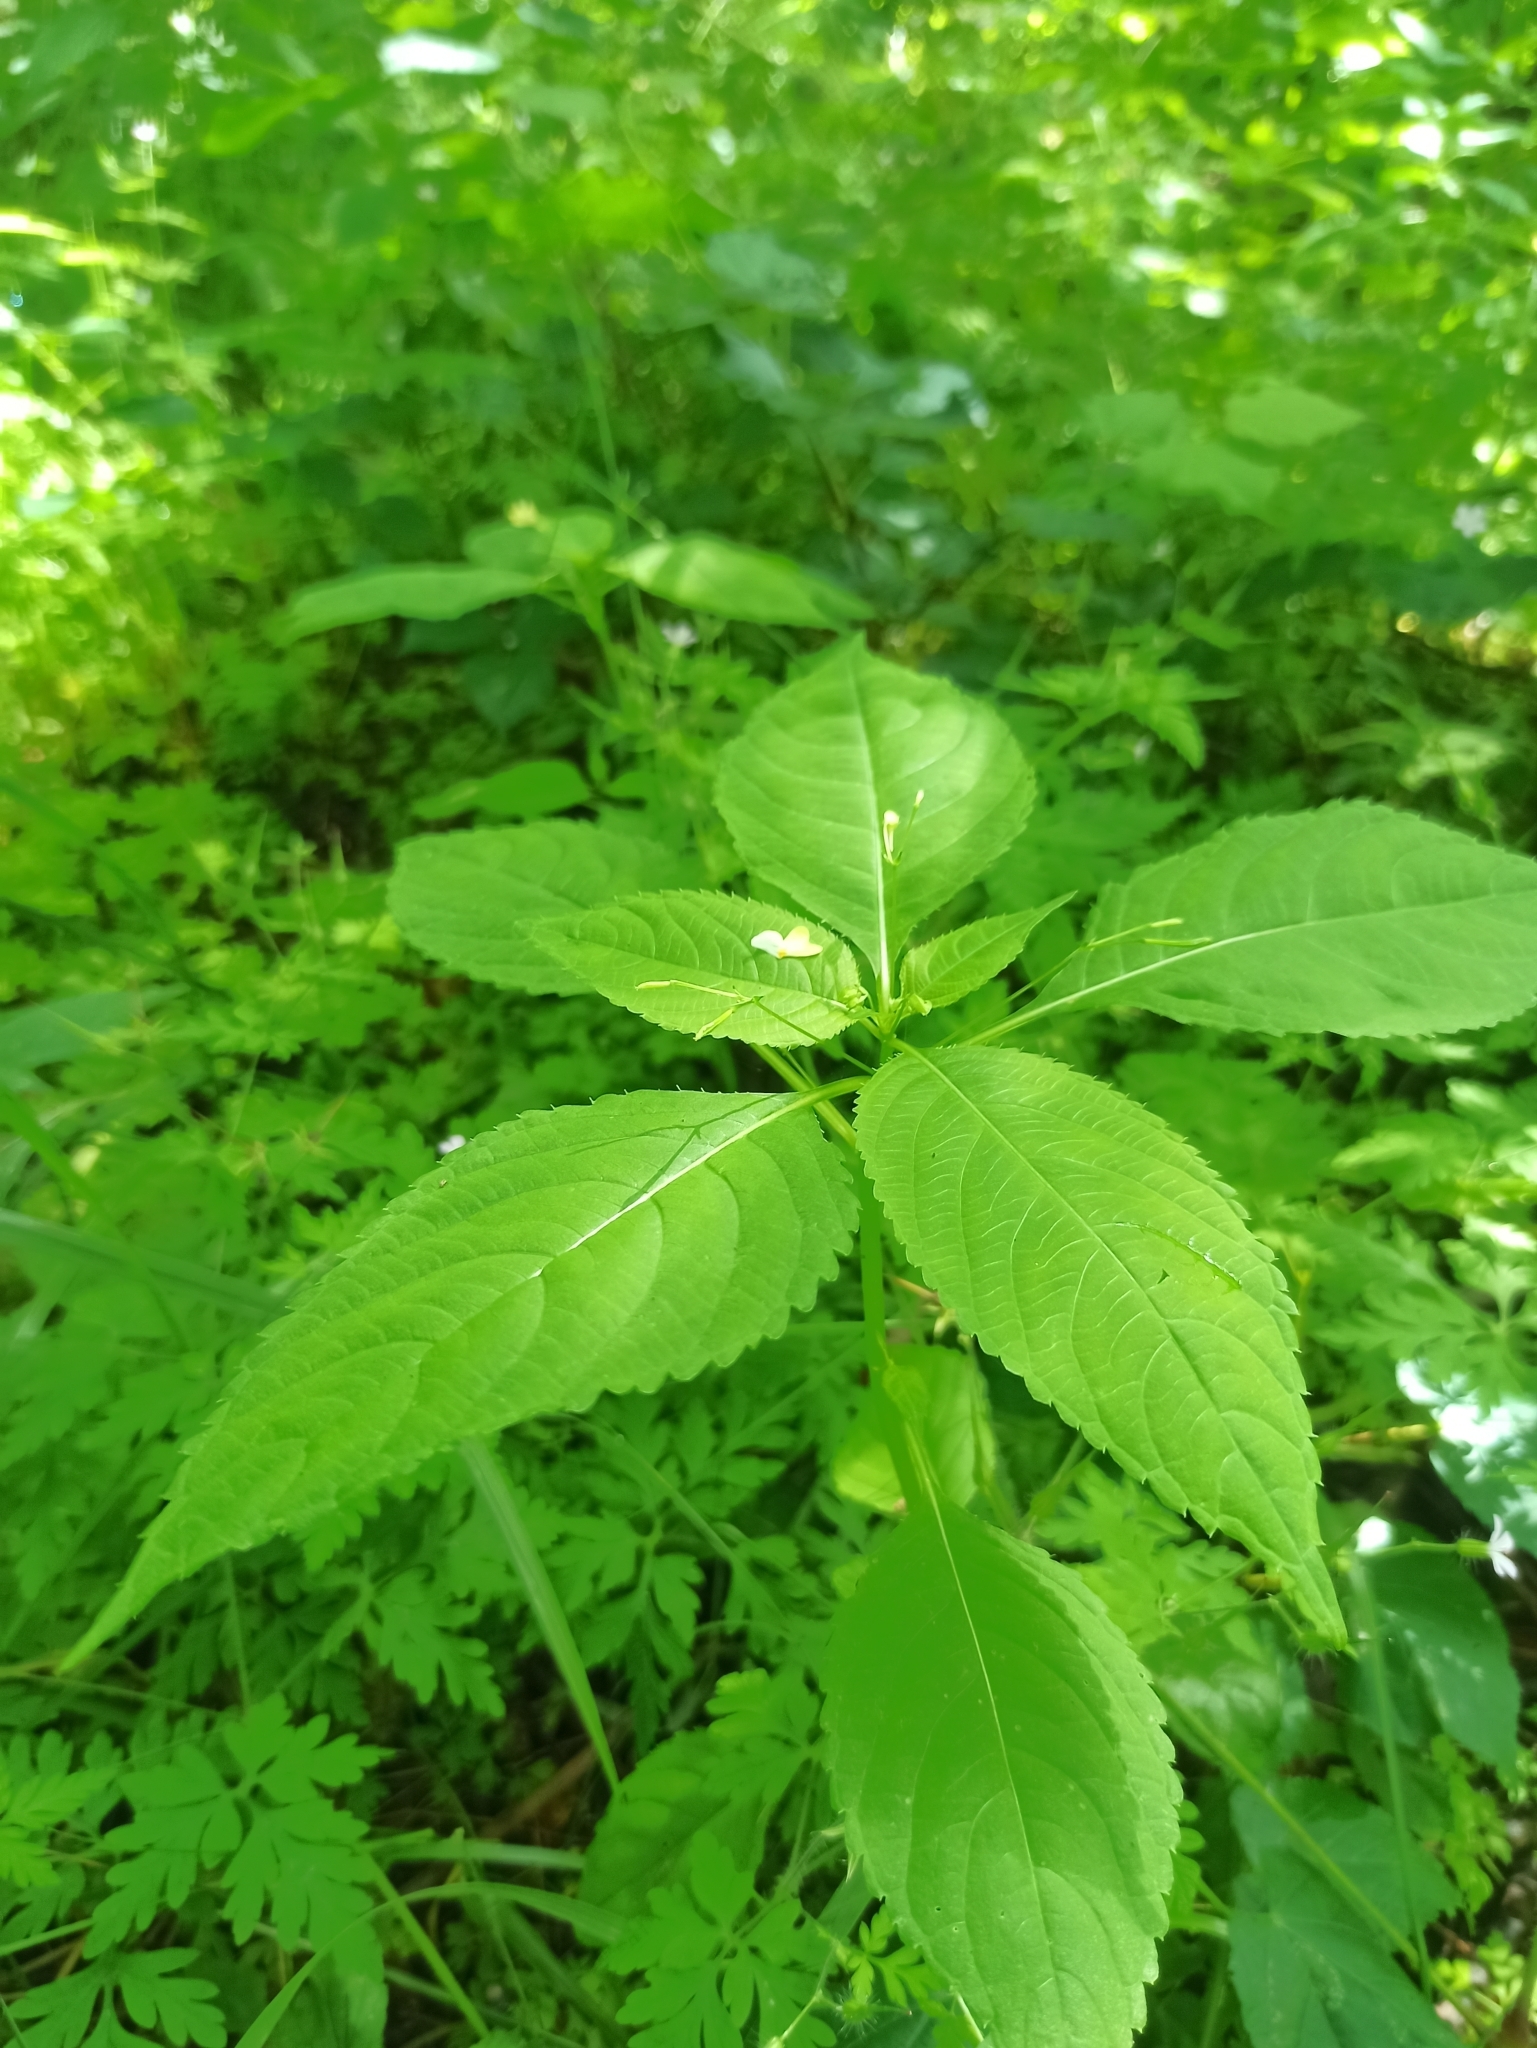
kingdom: Plantae
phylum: Tracheophyta
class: Magnoliopsida
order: Ericales
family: Balsaminaceae
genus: Impatiens
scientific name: Impatiens parviflora
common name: Small balsam
